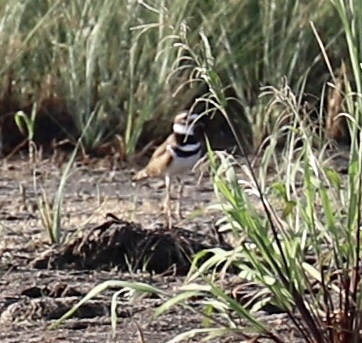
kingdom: Animalia
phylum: Chordata
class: Aves
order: Charadriiformes
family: Charadriidae
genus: Charadrius
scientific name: Charadrius vociferus
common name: Killdeer
